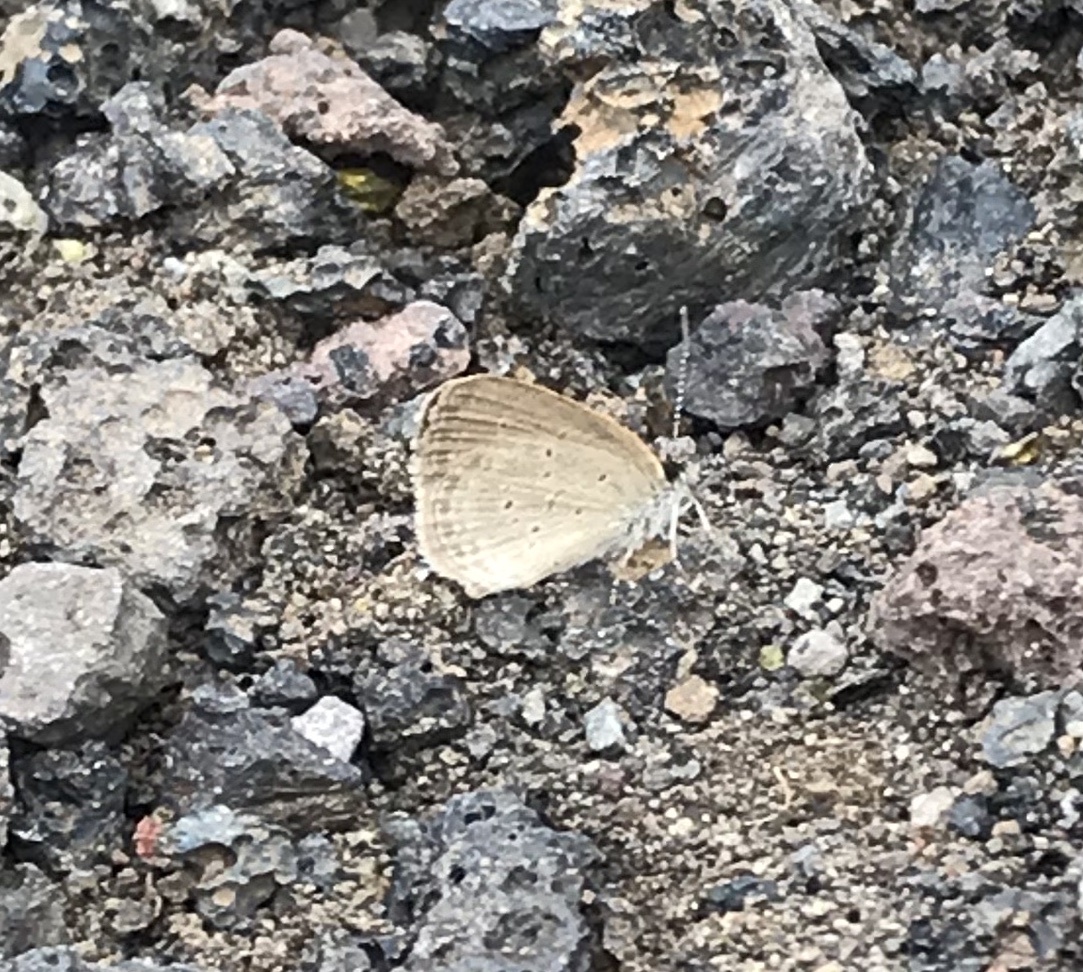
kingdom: Animalia
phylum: Arthropoda
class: Insecta
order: Lepidoptera
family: Lycaenidae
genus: Zizina
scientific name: Zizina otis
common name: Lesser grass blue
